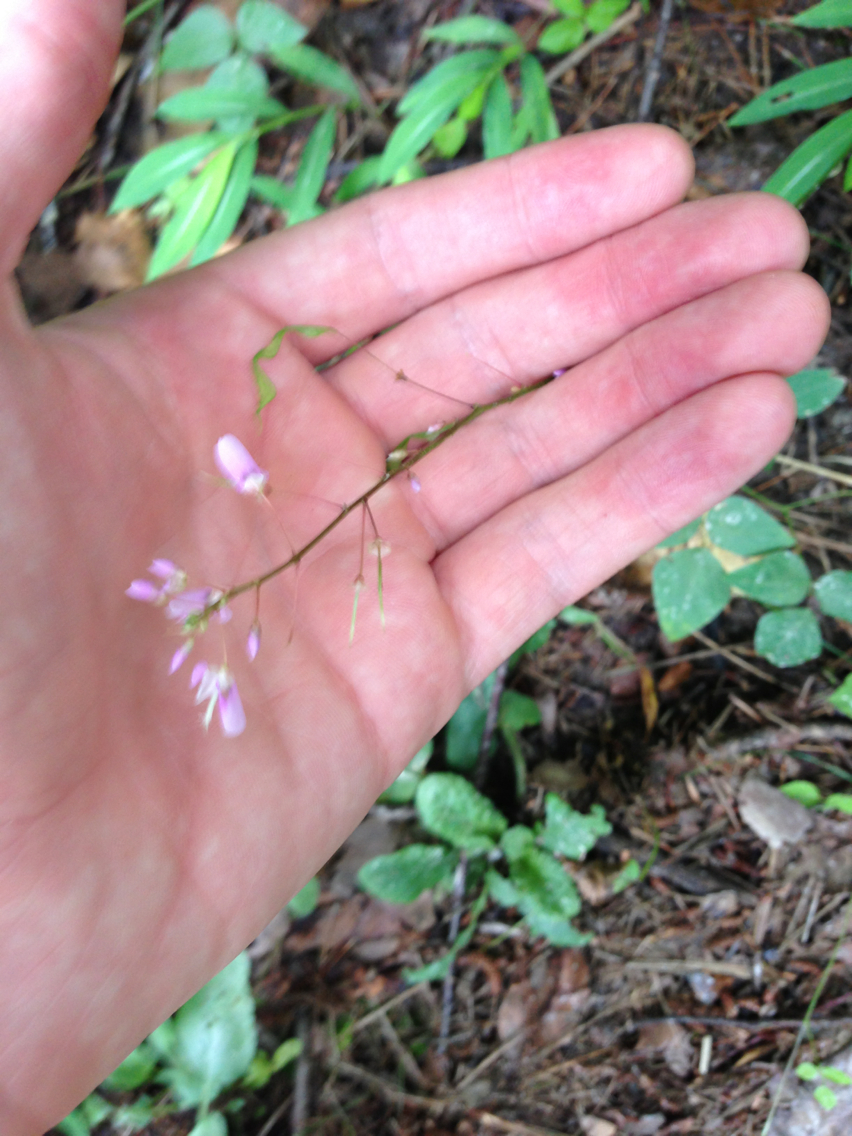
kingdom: Plantae
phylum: Tracheophyta
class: Magnoliopsida
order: Fabales
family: Fabaceae
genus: Hylodesmum
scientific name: Hylodesmum nudiflorum
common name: Bare-stemmed tick-trefoil
